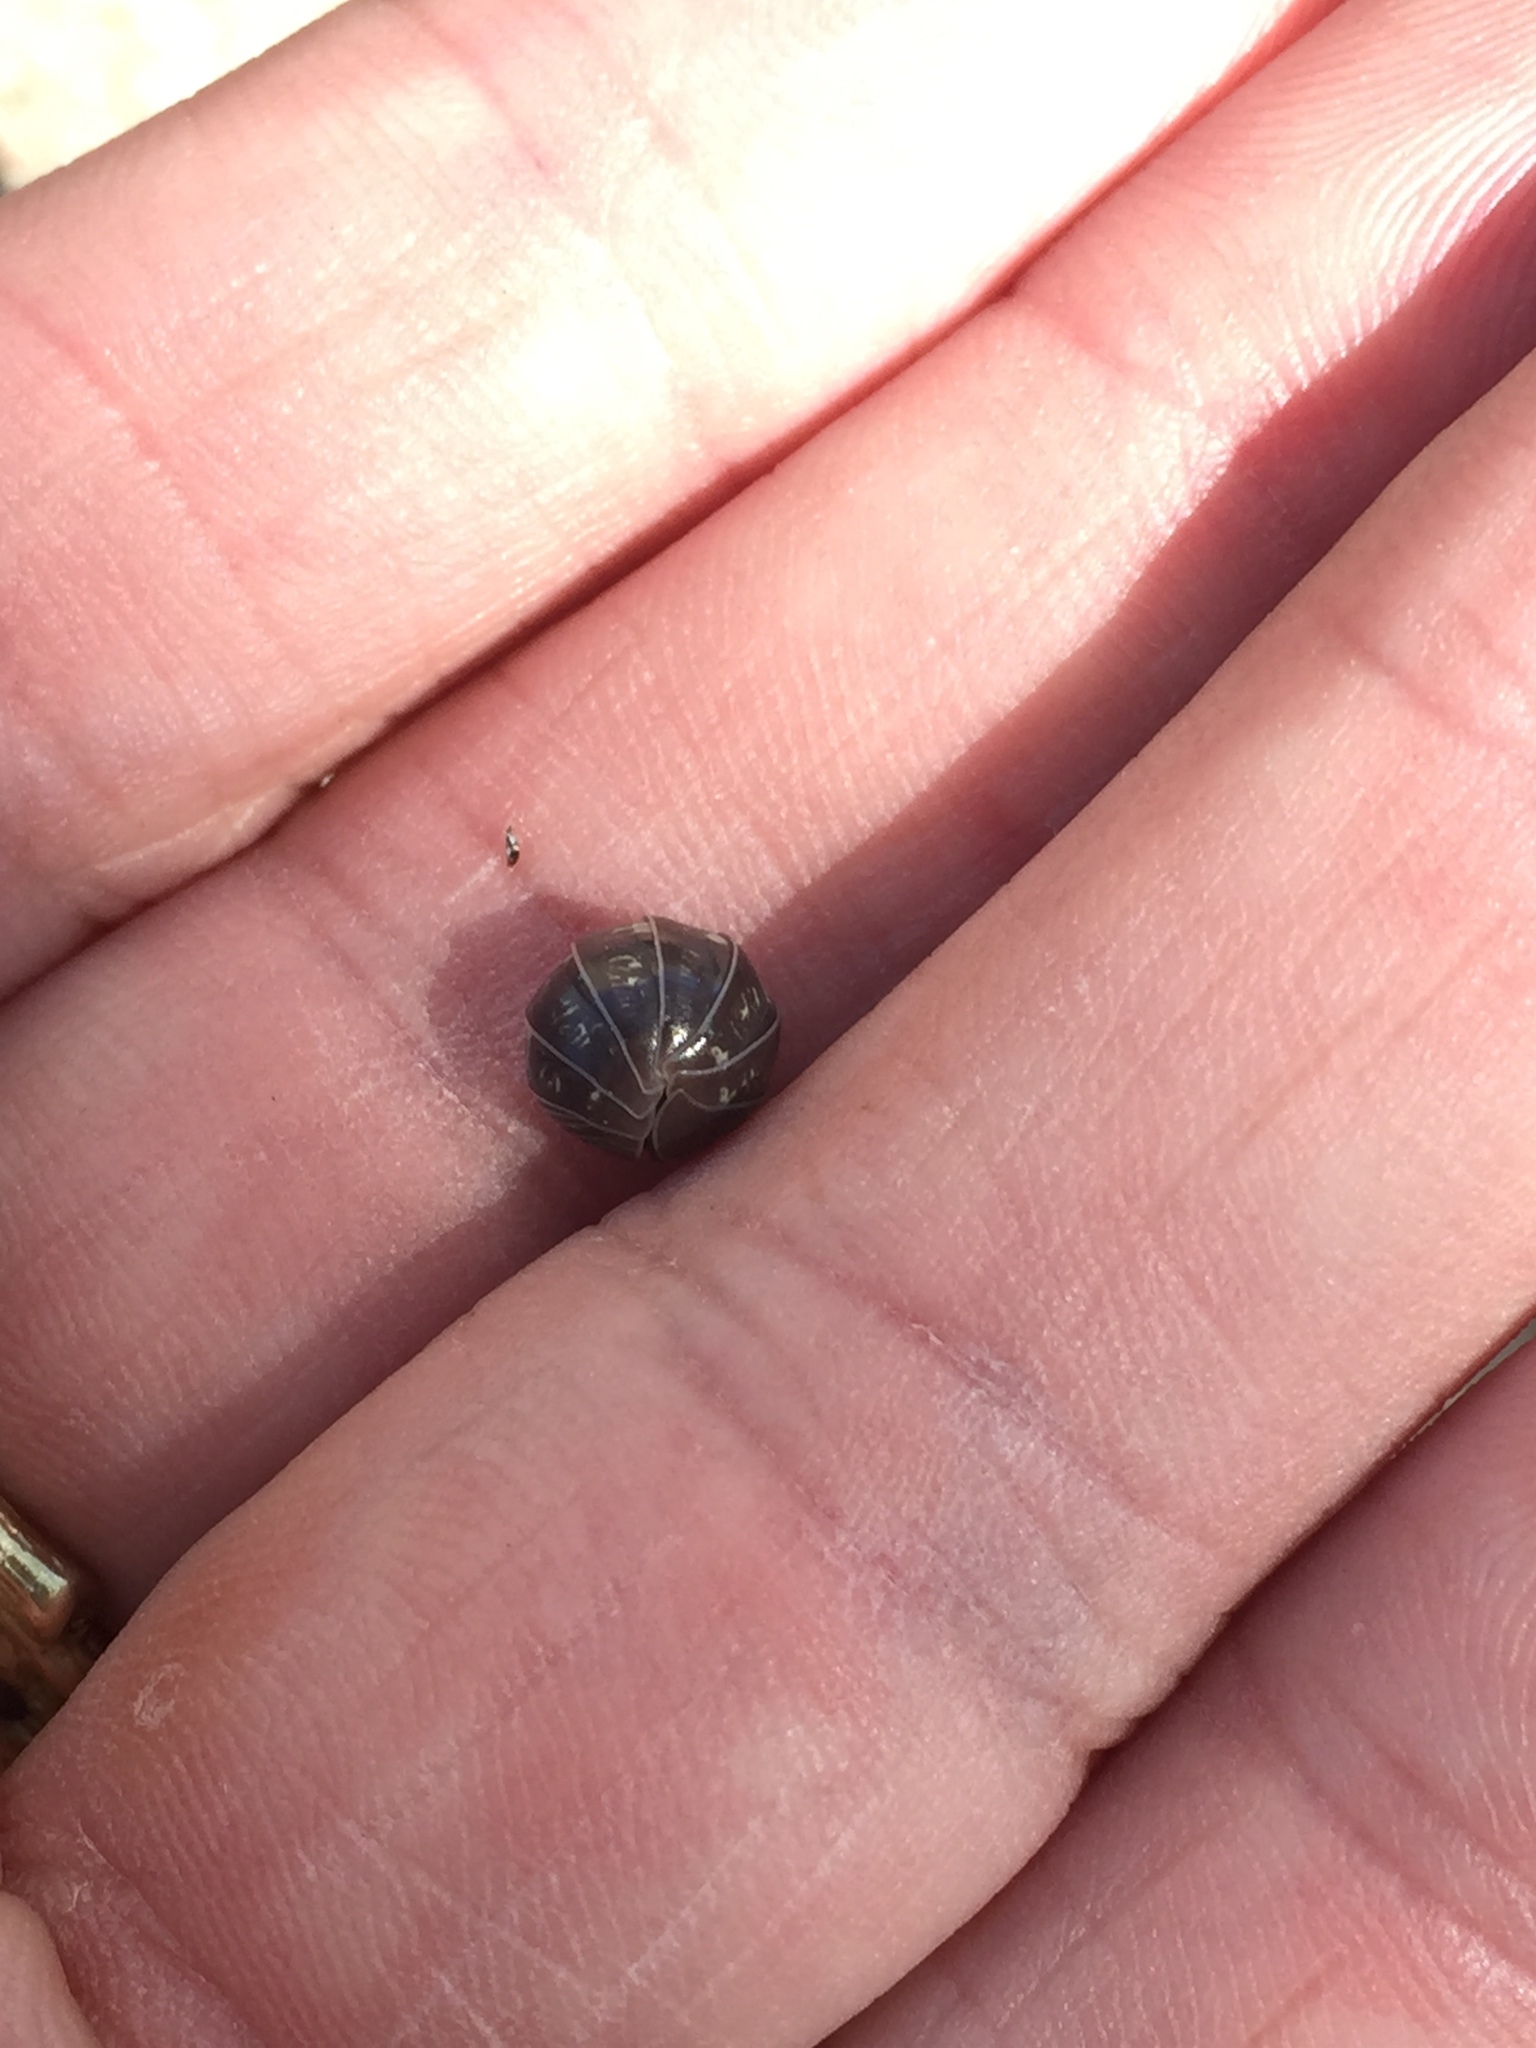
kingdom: Animalia
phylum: Arthropoda
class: Malacostraca
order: Isopoda
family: Armadillidiidae
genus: Armadillidium
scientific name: Armadillidium vulgare
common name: Common pill woodlouse
